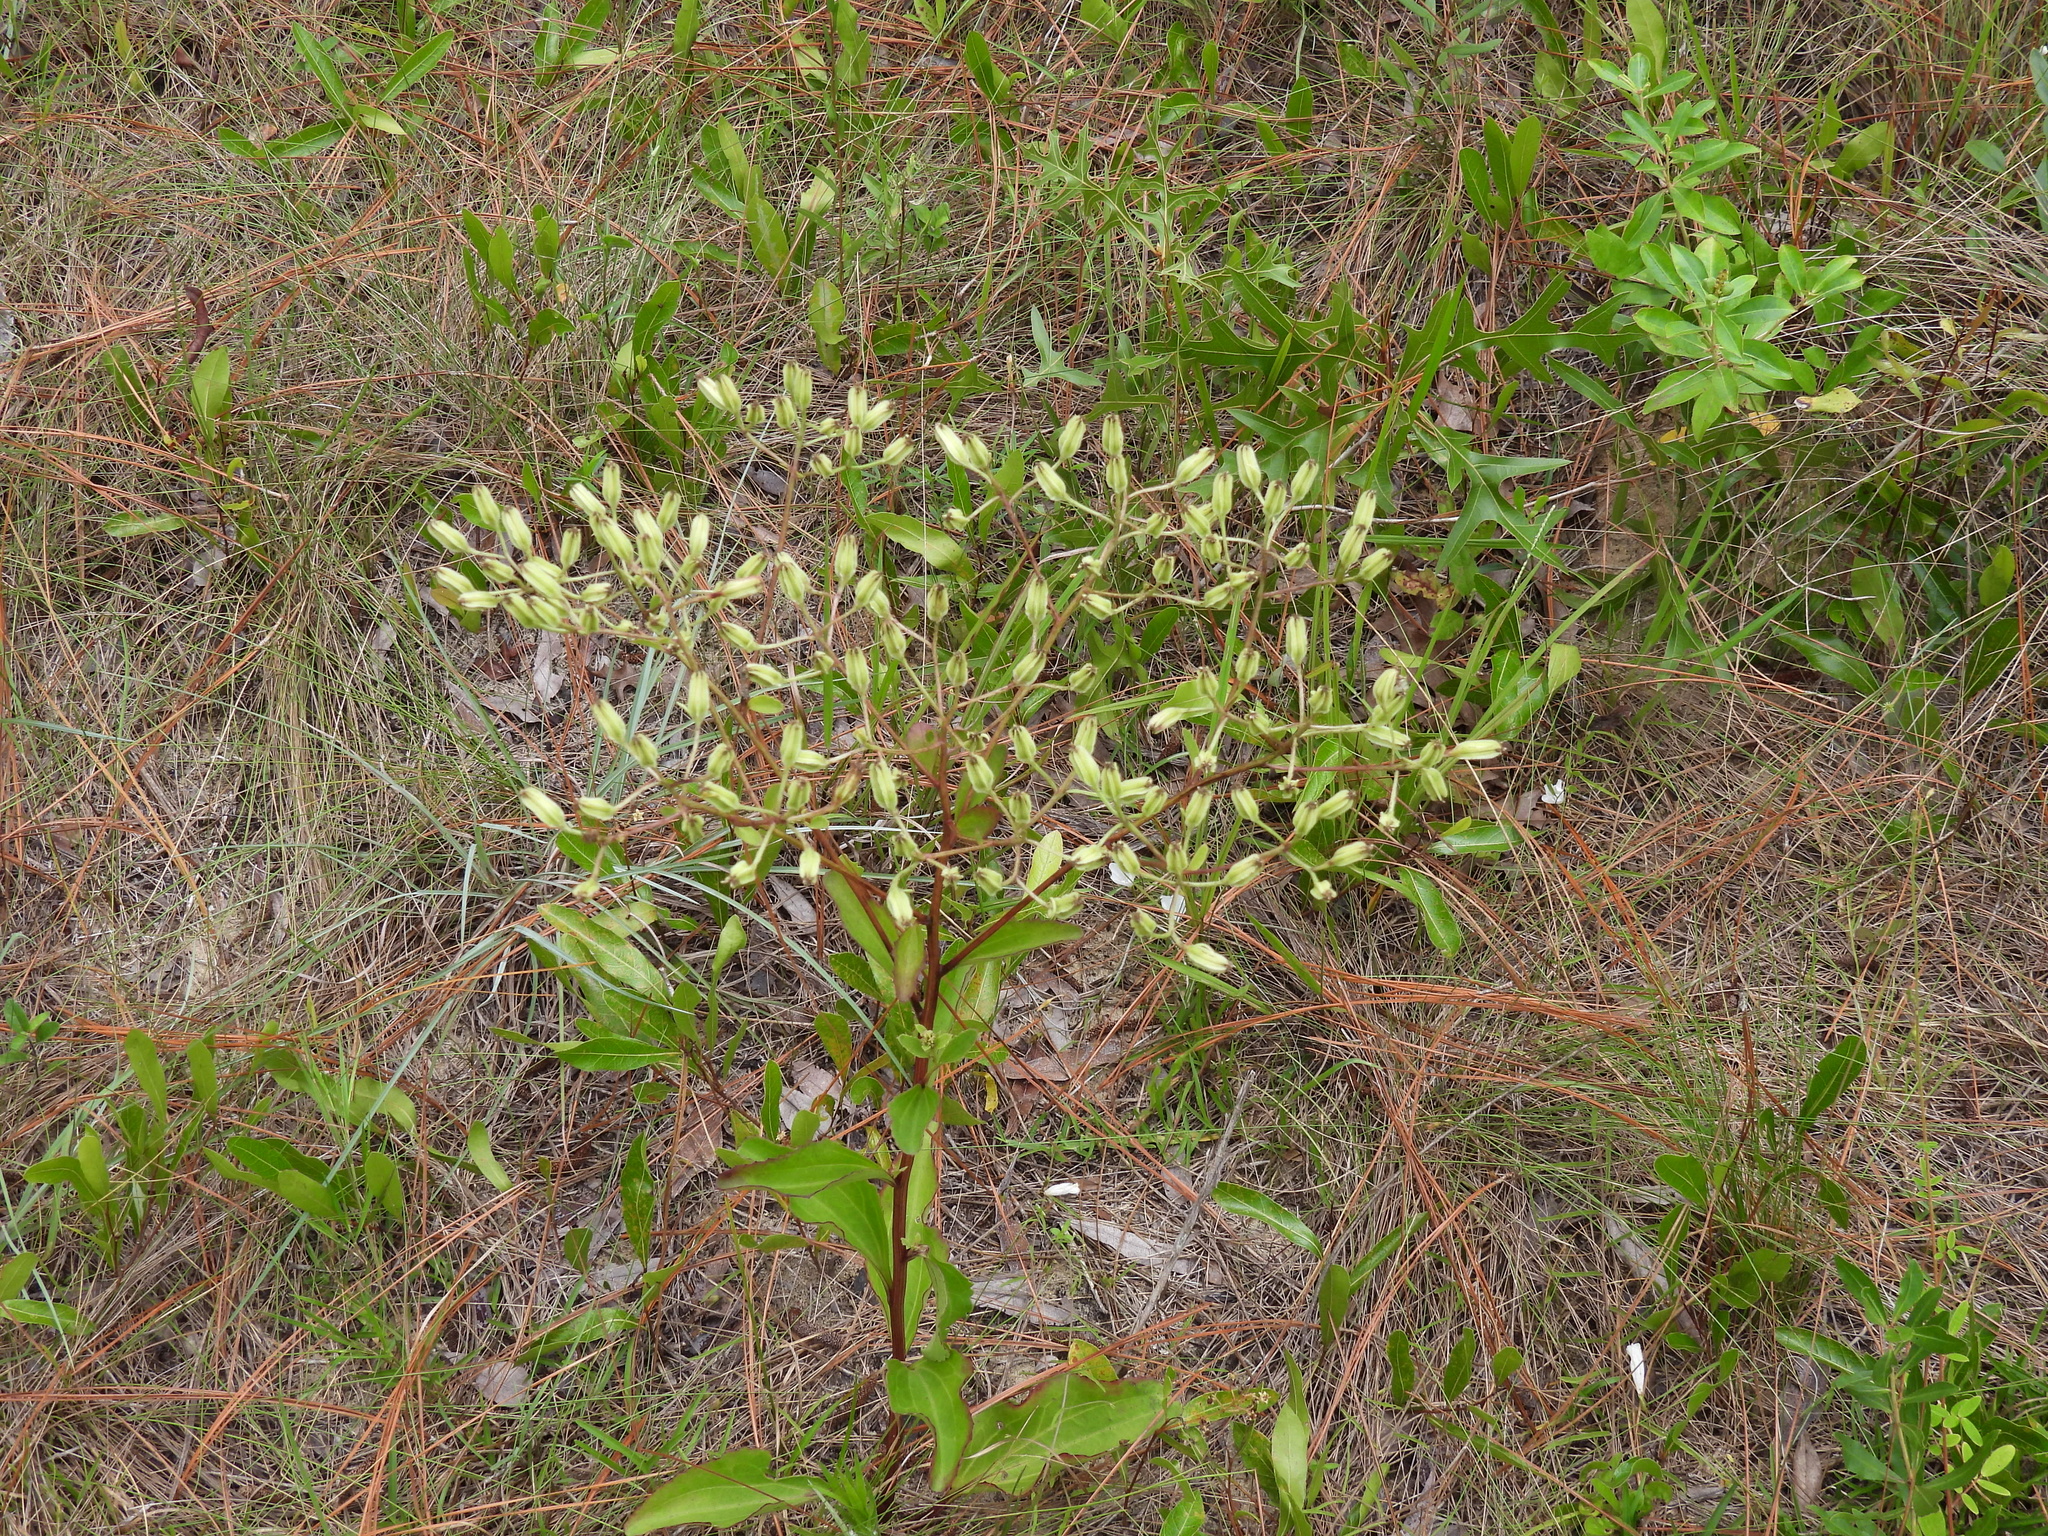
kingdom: Plantae
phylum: Tracheophyta
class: Magnoliopsida
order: Asterales
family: Asteraceae
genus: Arnoglossum
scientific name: Arnoglossum floridanum
